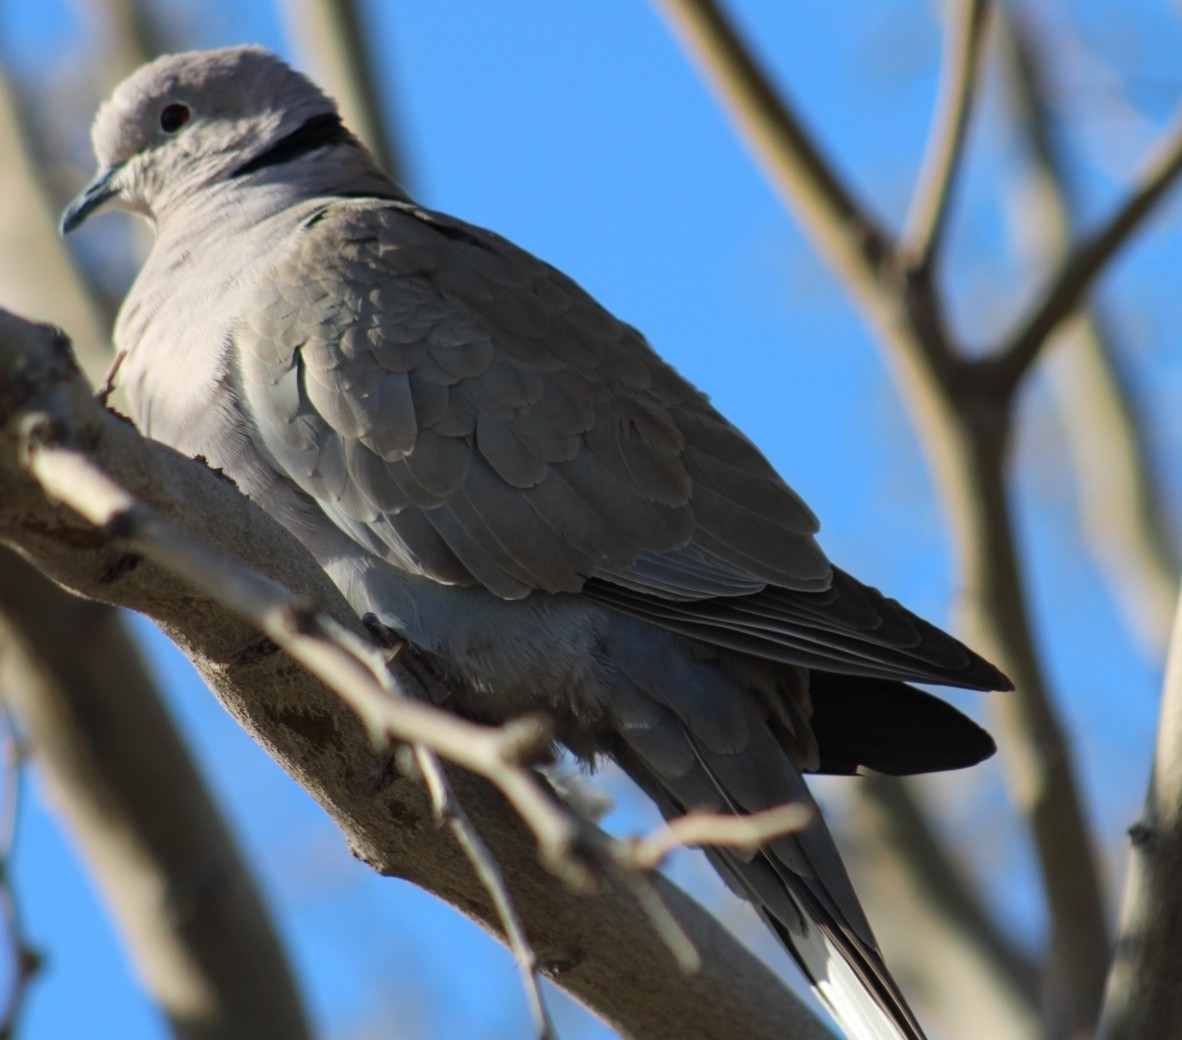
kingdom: Animalia
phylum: Chordata
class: Aves
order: Columbiformes
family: Columbidae
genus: Streptopelia
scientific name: Streptopelia decaocto
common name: Eurasian collared dove
